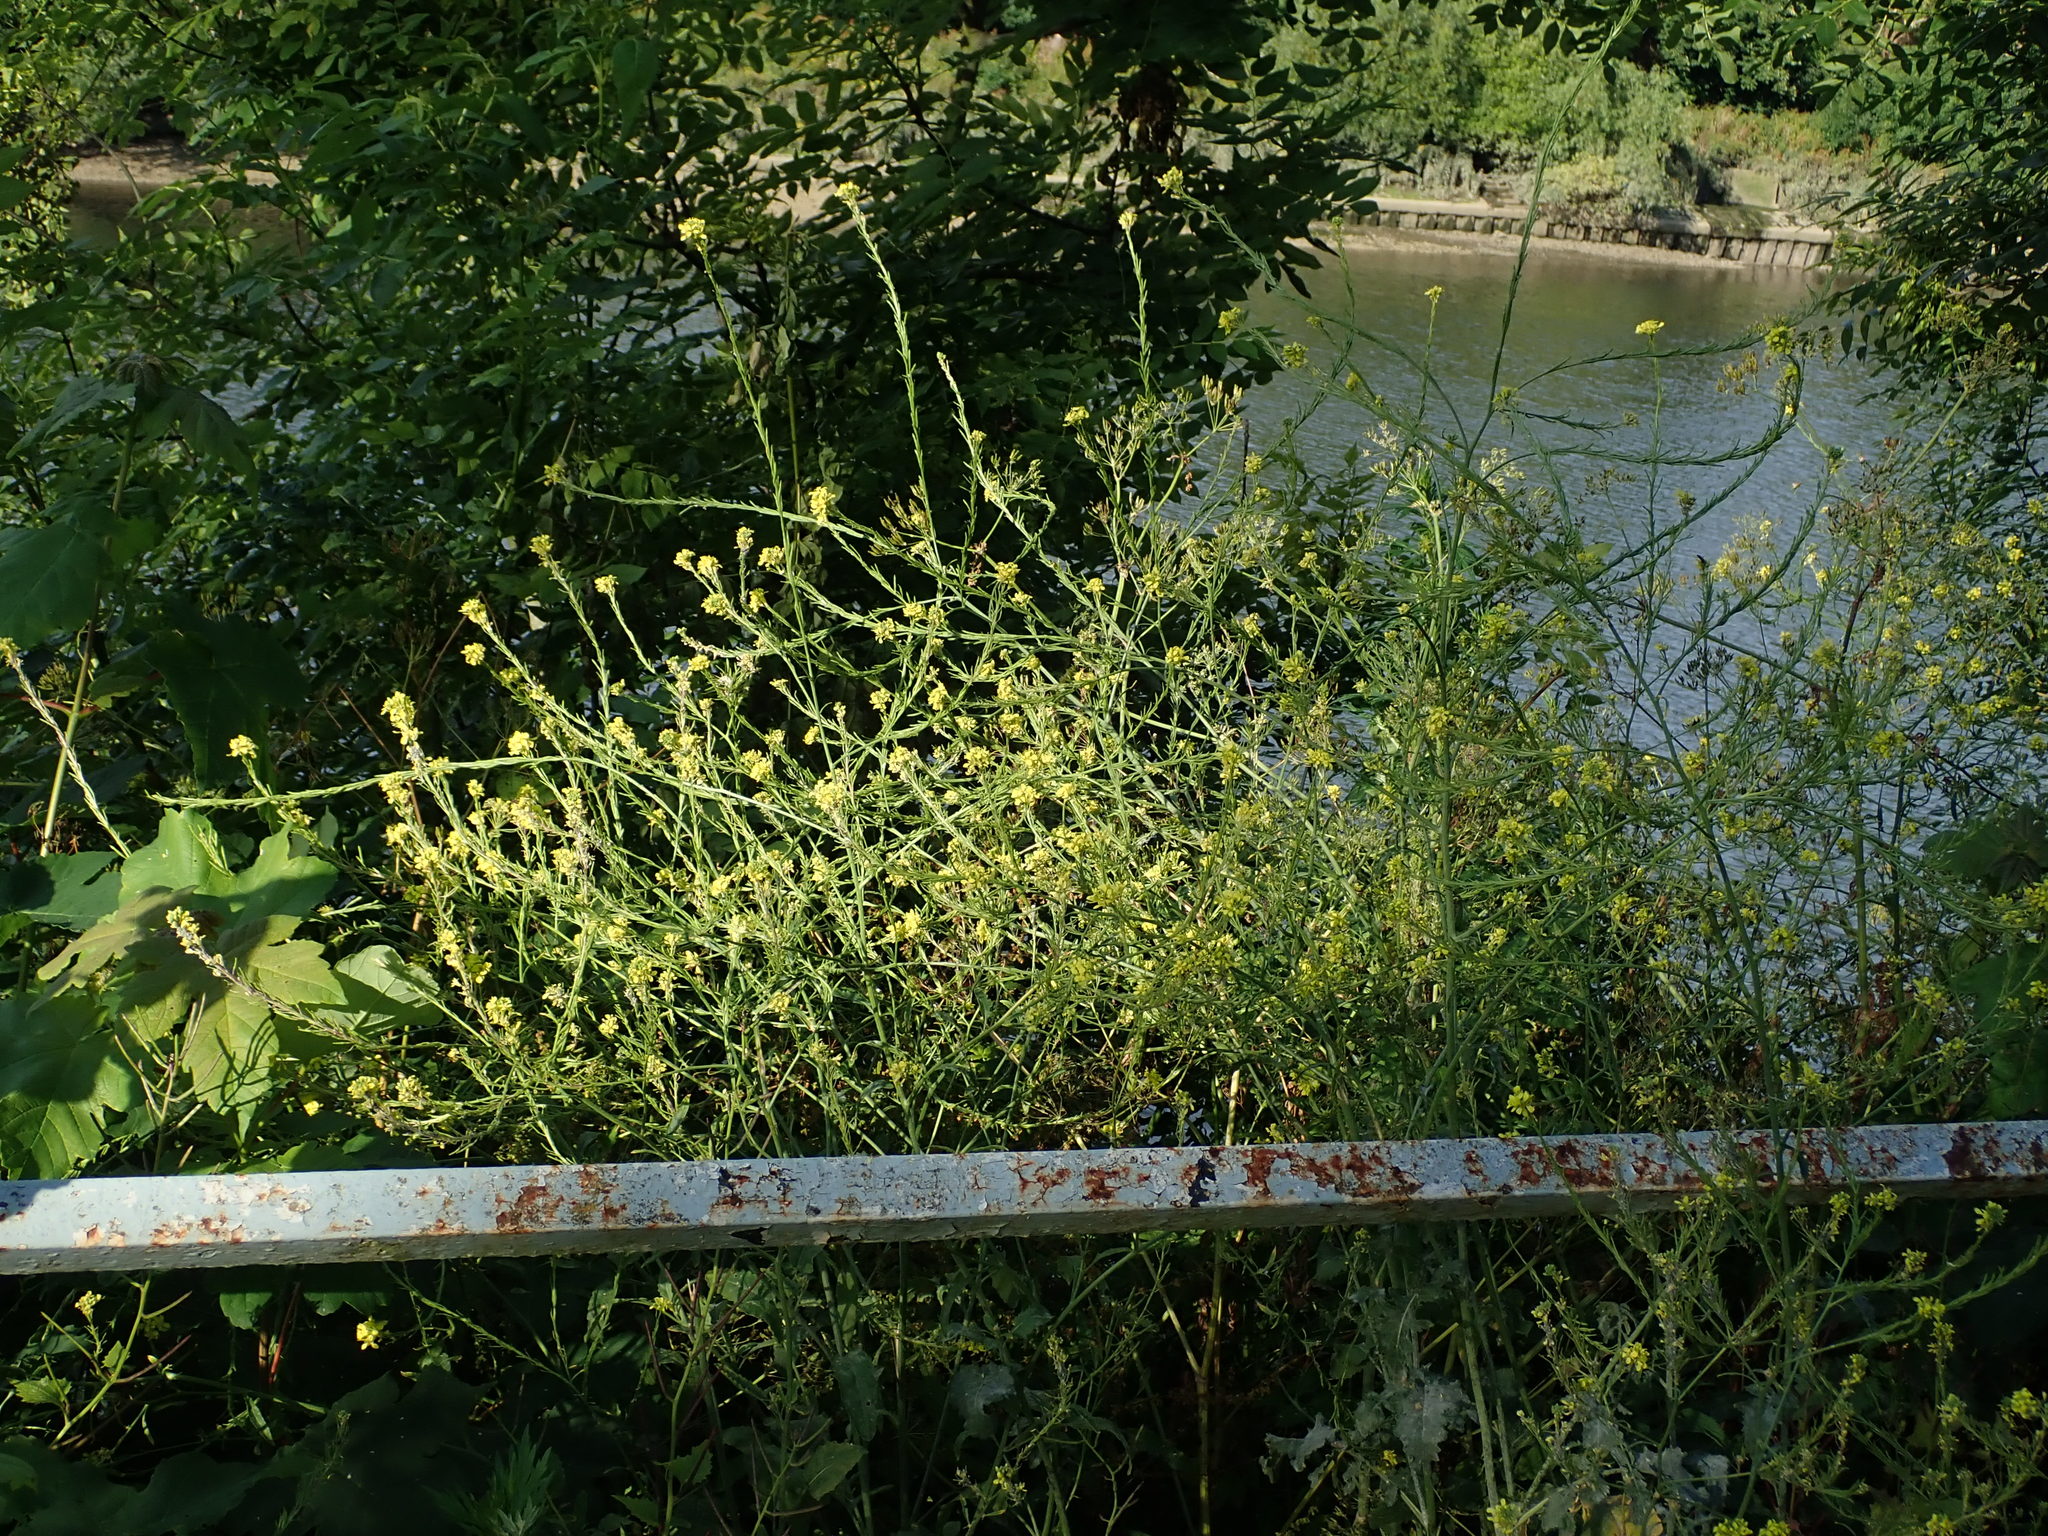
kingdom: Plantae
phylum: Tracheophyta
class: Magnoliopsida
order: Brassicales
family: Brassicaceae
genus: Hirschfeldia
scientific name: Hirschfeldia incana
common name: Hoary mustard
